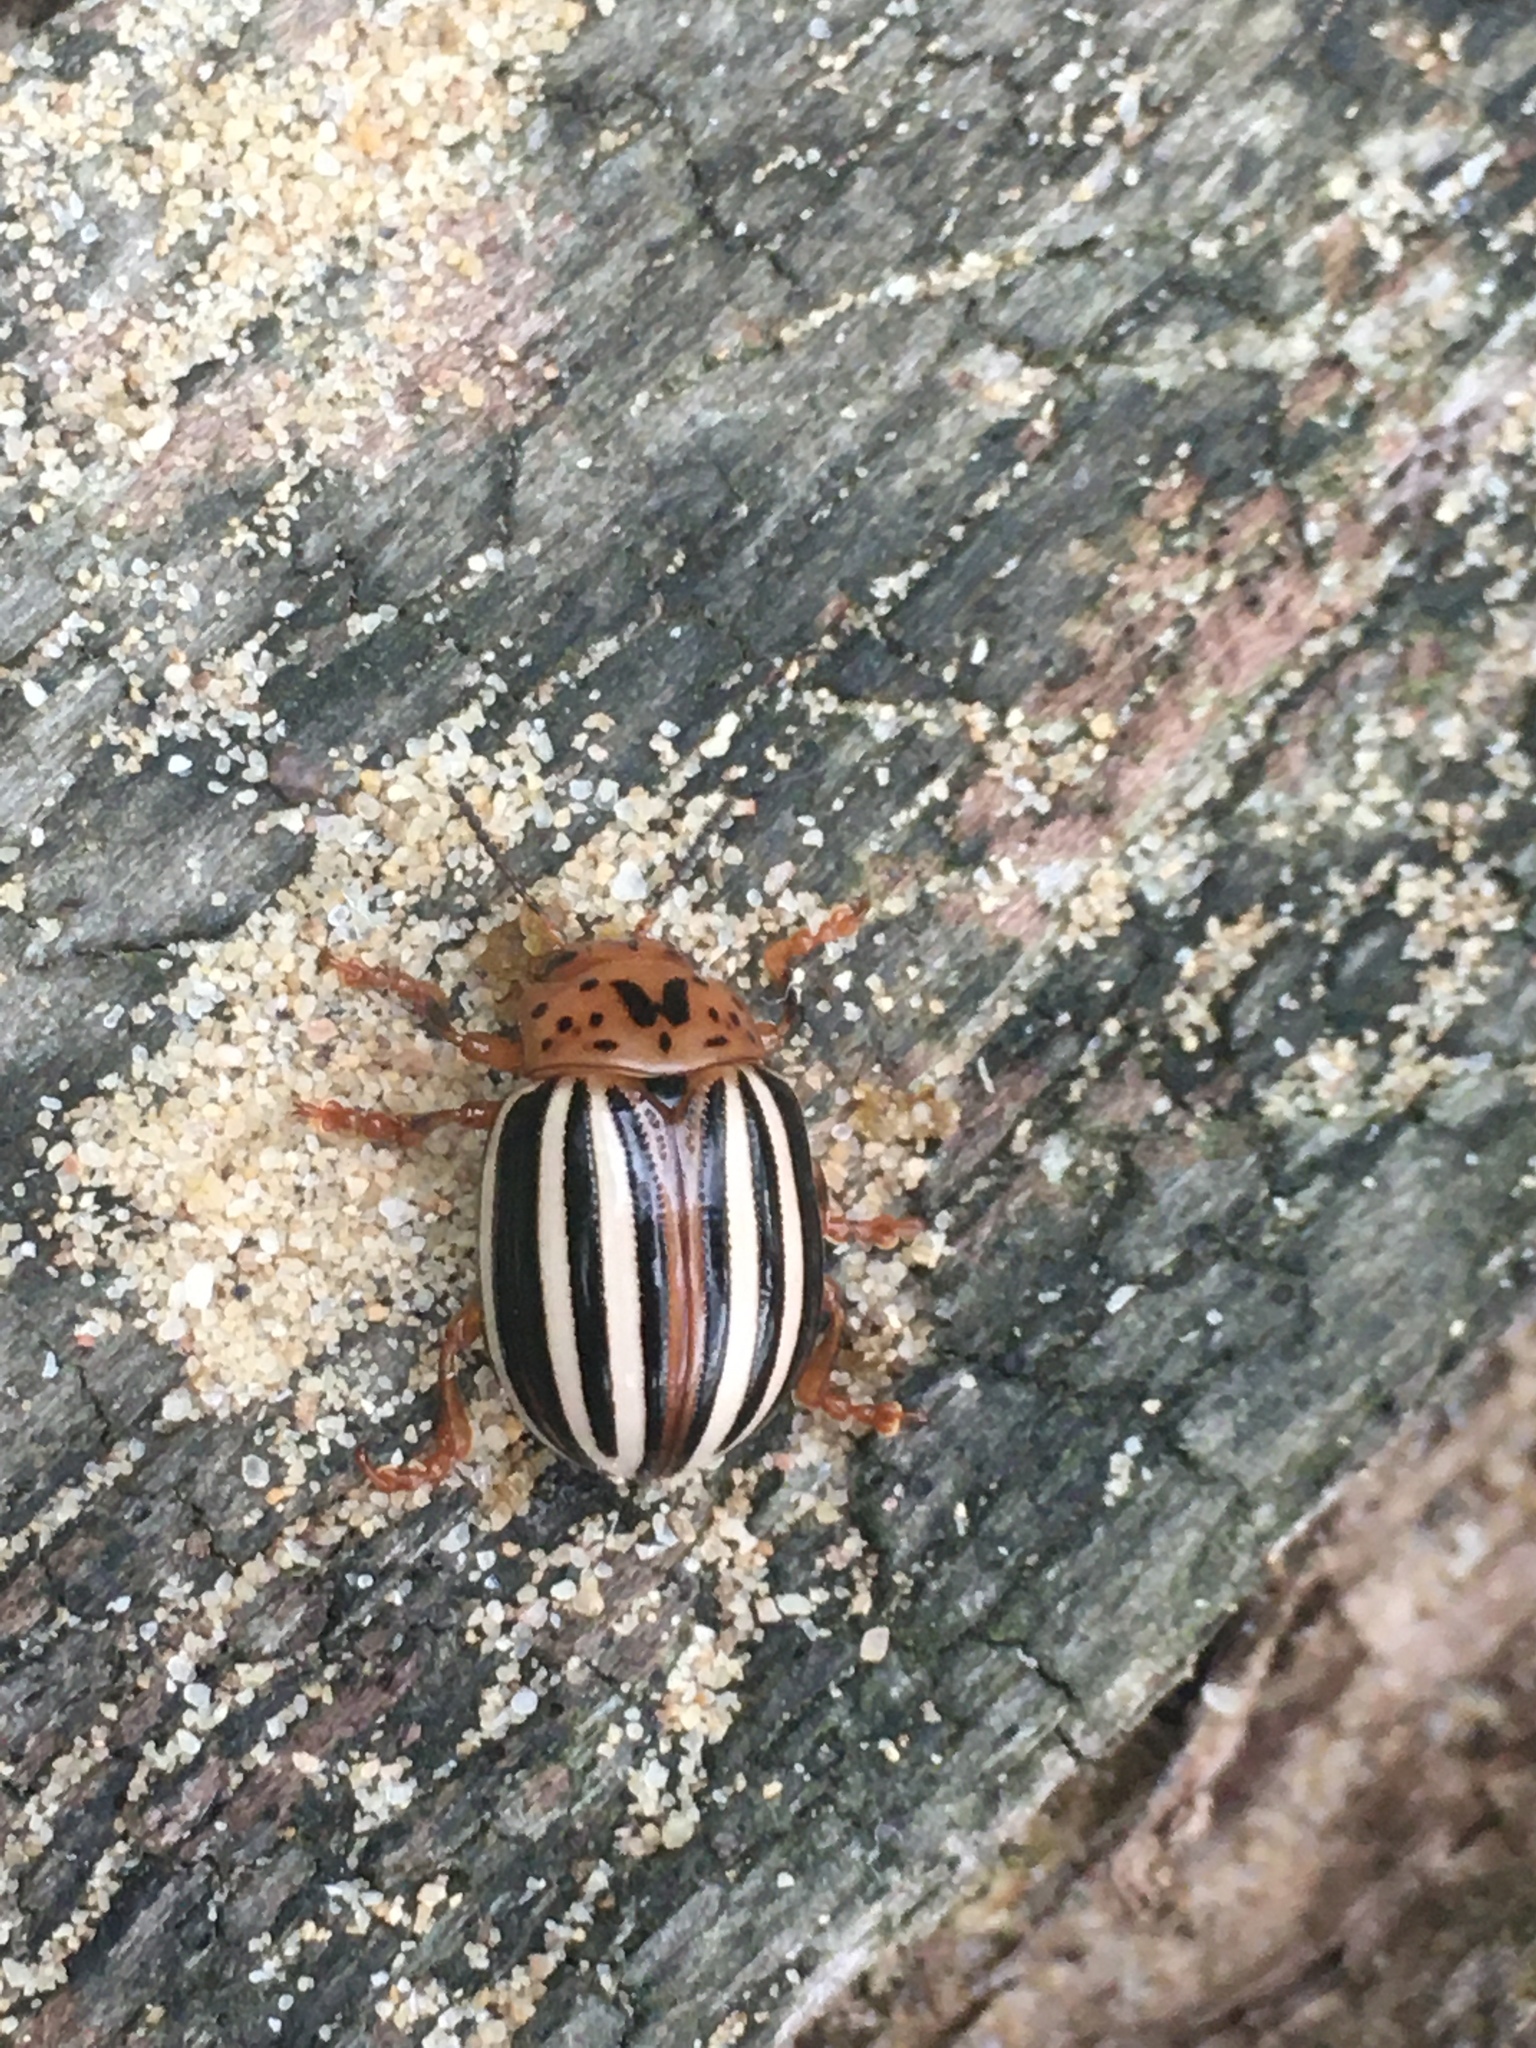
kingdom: Animalia
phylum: Arthropoda
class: Insecta
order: Coleoptera
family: Chrysomelidae
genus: Leptinotarsa
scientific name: Leptinotarsa juncta
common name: False potato beetle
